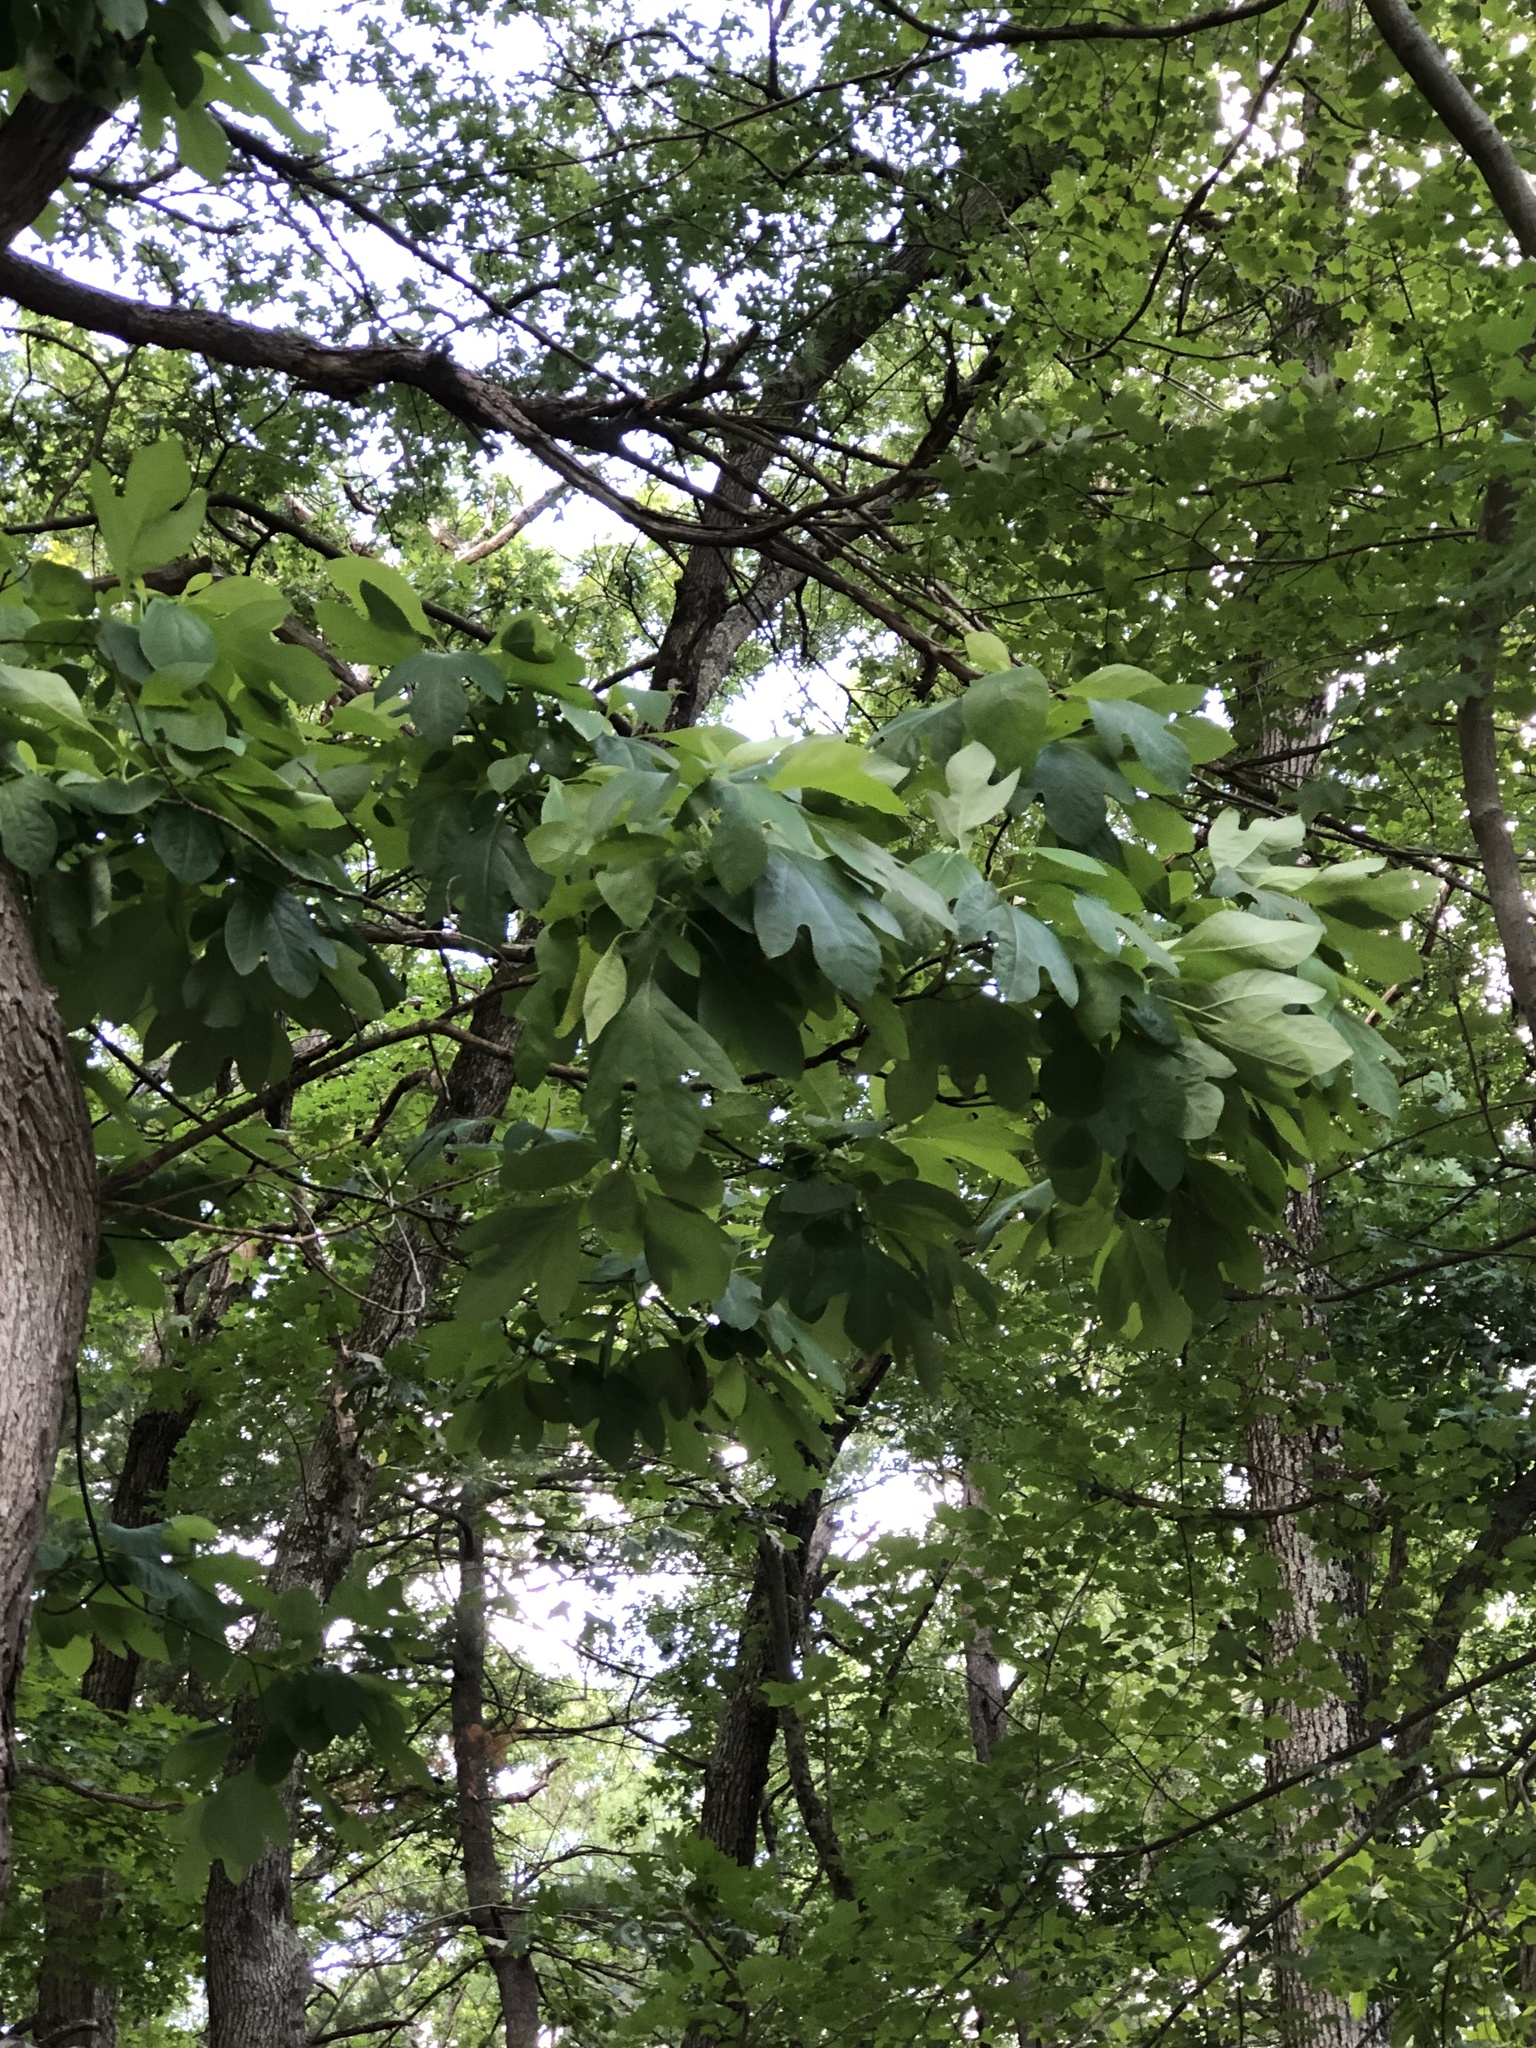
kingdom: Plantae
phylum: Tracheophyta
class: Magnoliopsida
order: Laurales
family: Lauraceae
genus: Sassafras
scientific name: Sassafras albidum
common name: Sassafras
